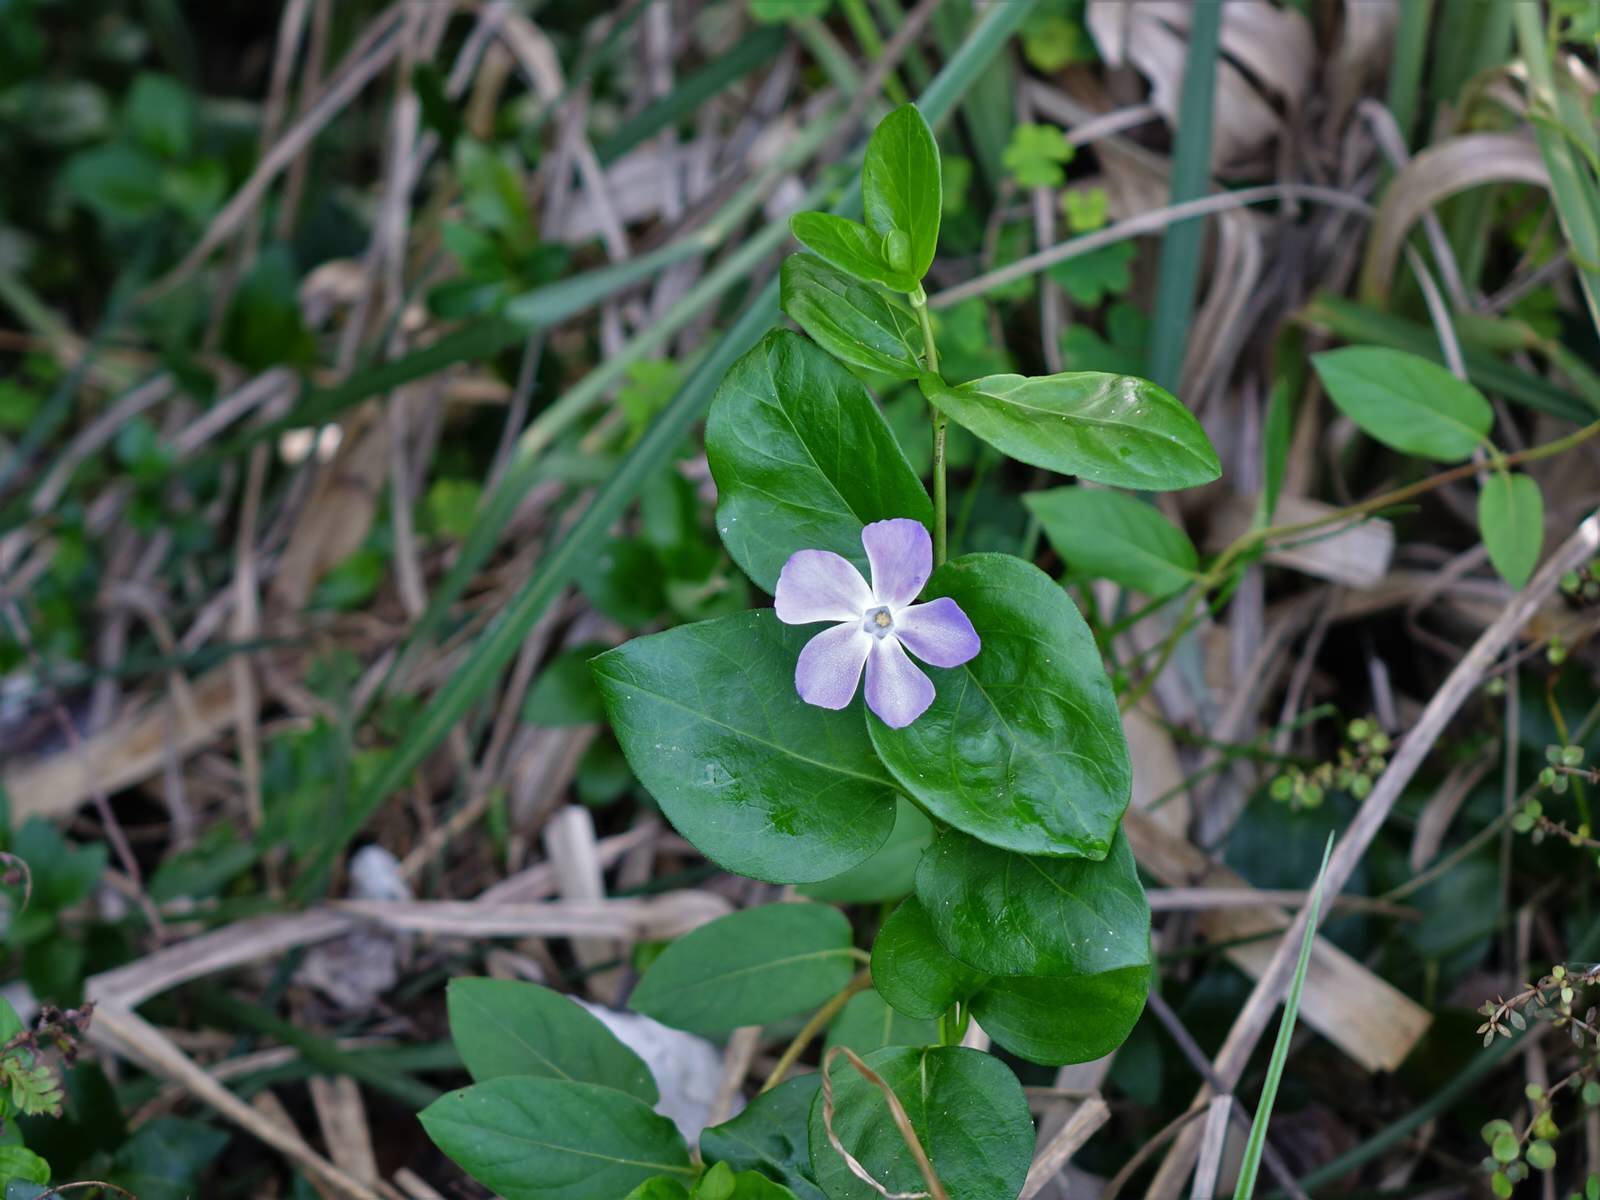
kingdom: Plantae
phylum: Tracheophyta
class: Magnoliopsida
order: Gentianales
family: Apocynaceae
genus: Vinca
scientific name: Vinca major
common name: Greater periwinkle
